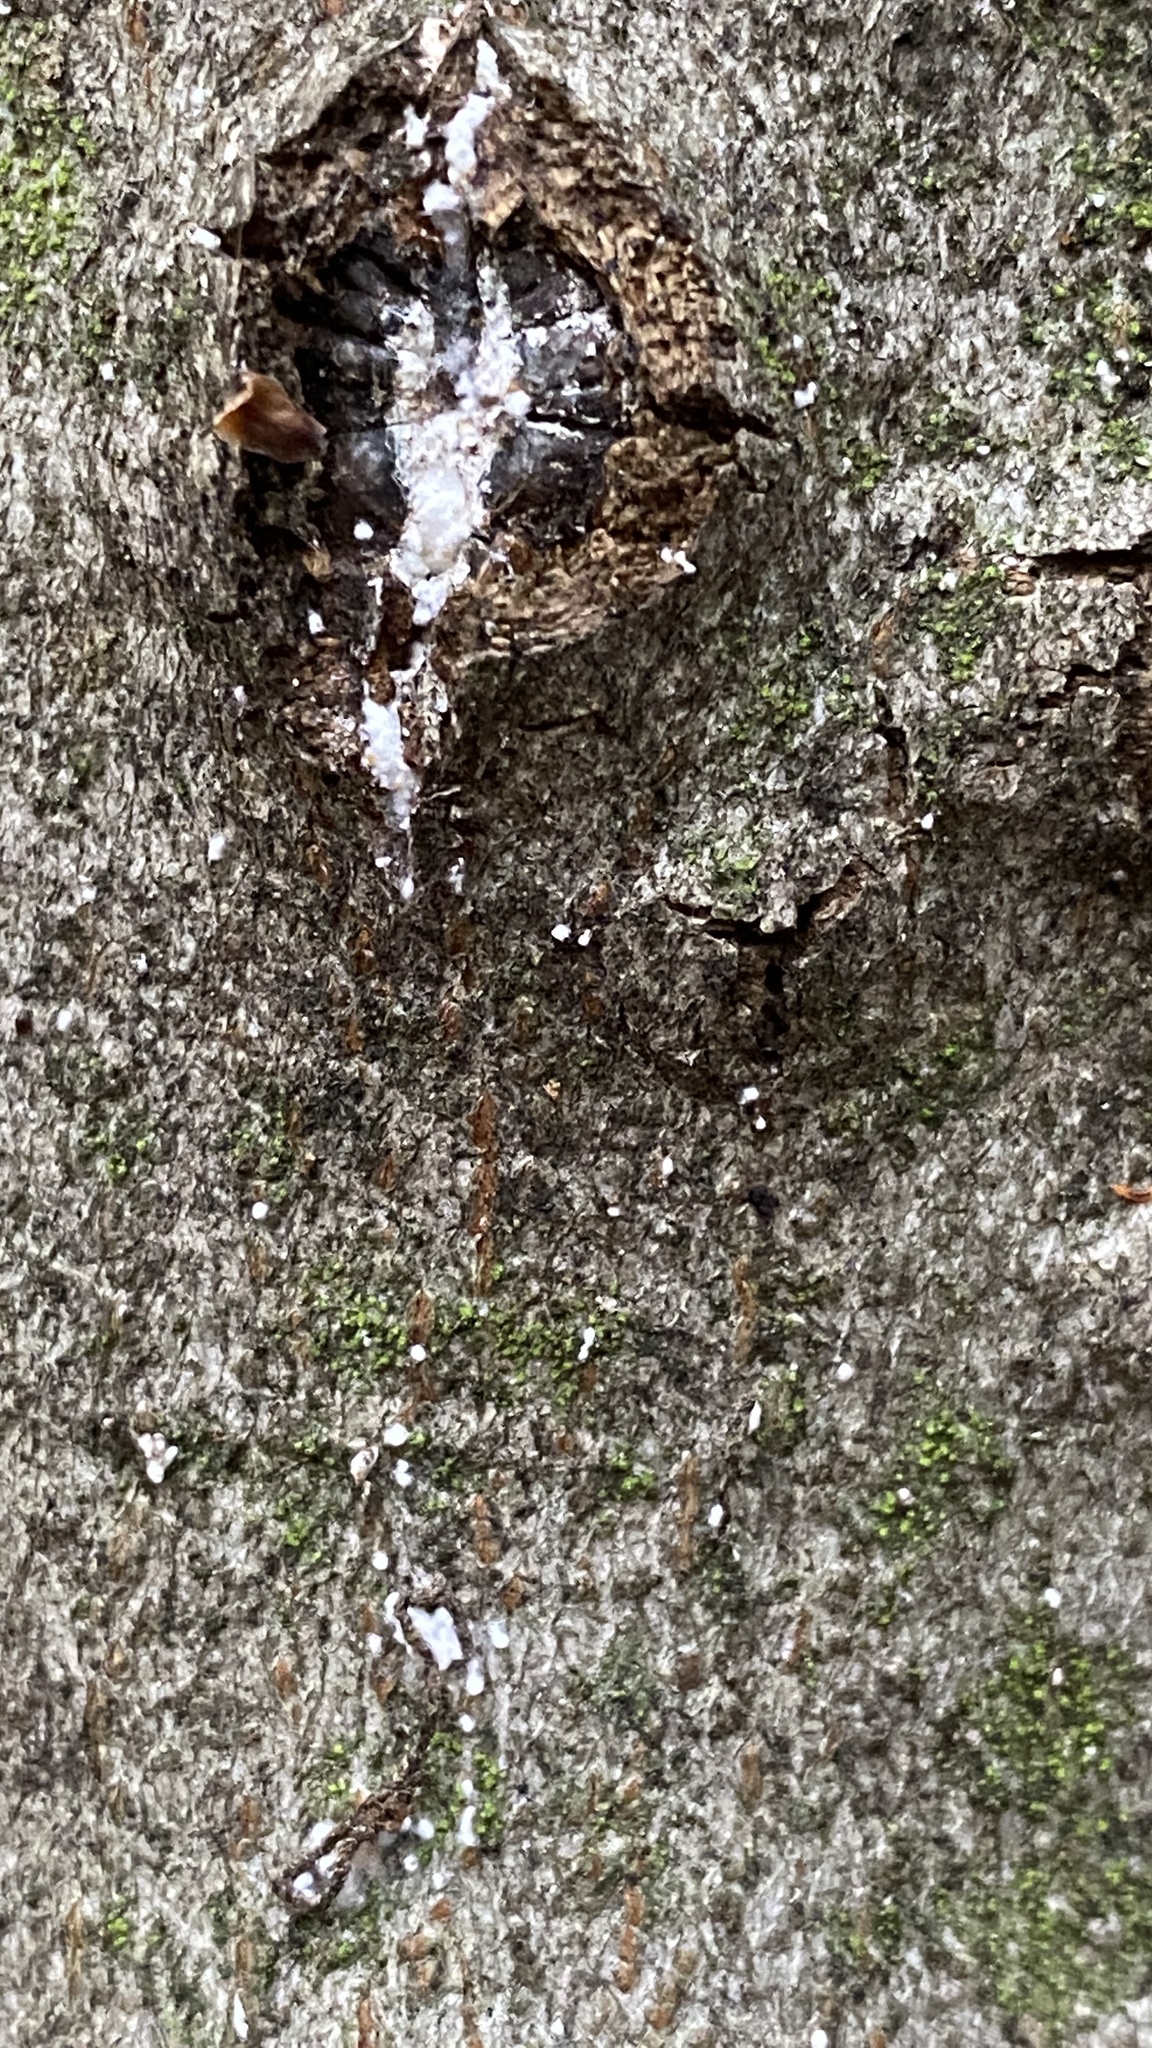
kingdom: Animalia
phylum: Arthropoda
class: Insecta
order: Hemiptera
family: Eriococcidae
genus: Cryptococcus
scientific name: Cryptococcus fagisuga
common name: Beech scale
